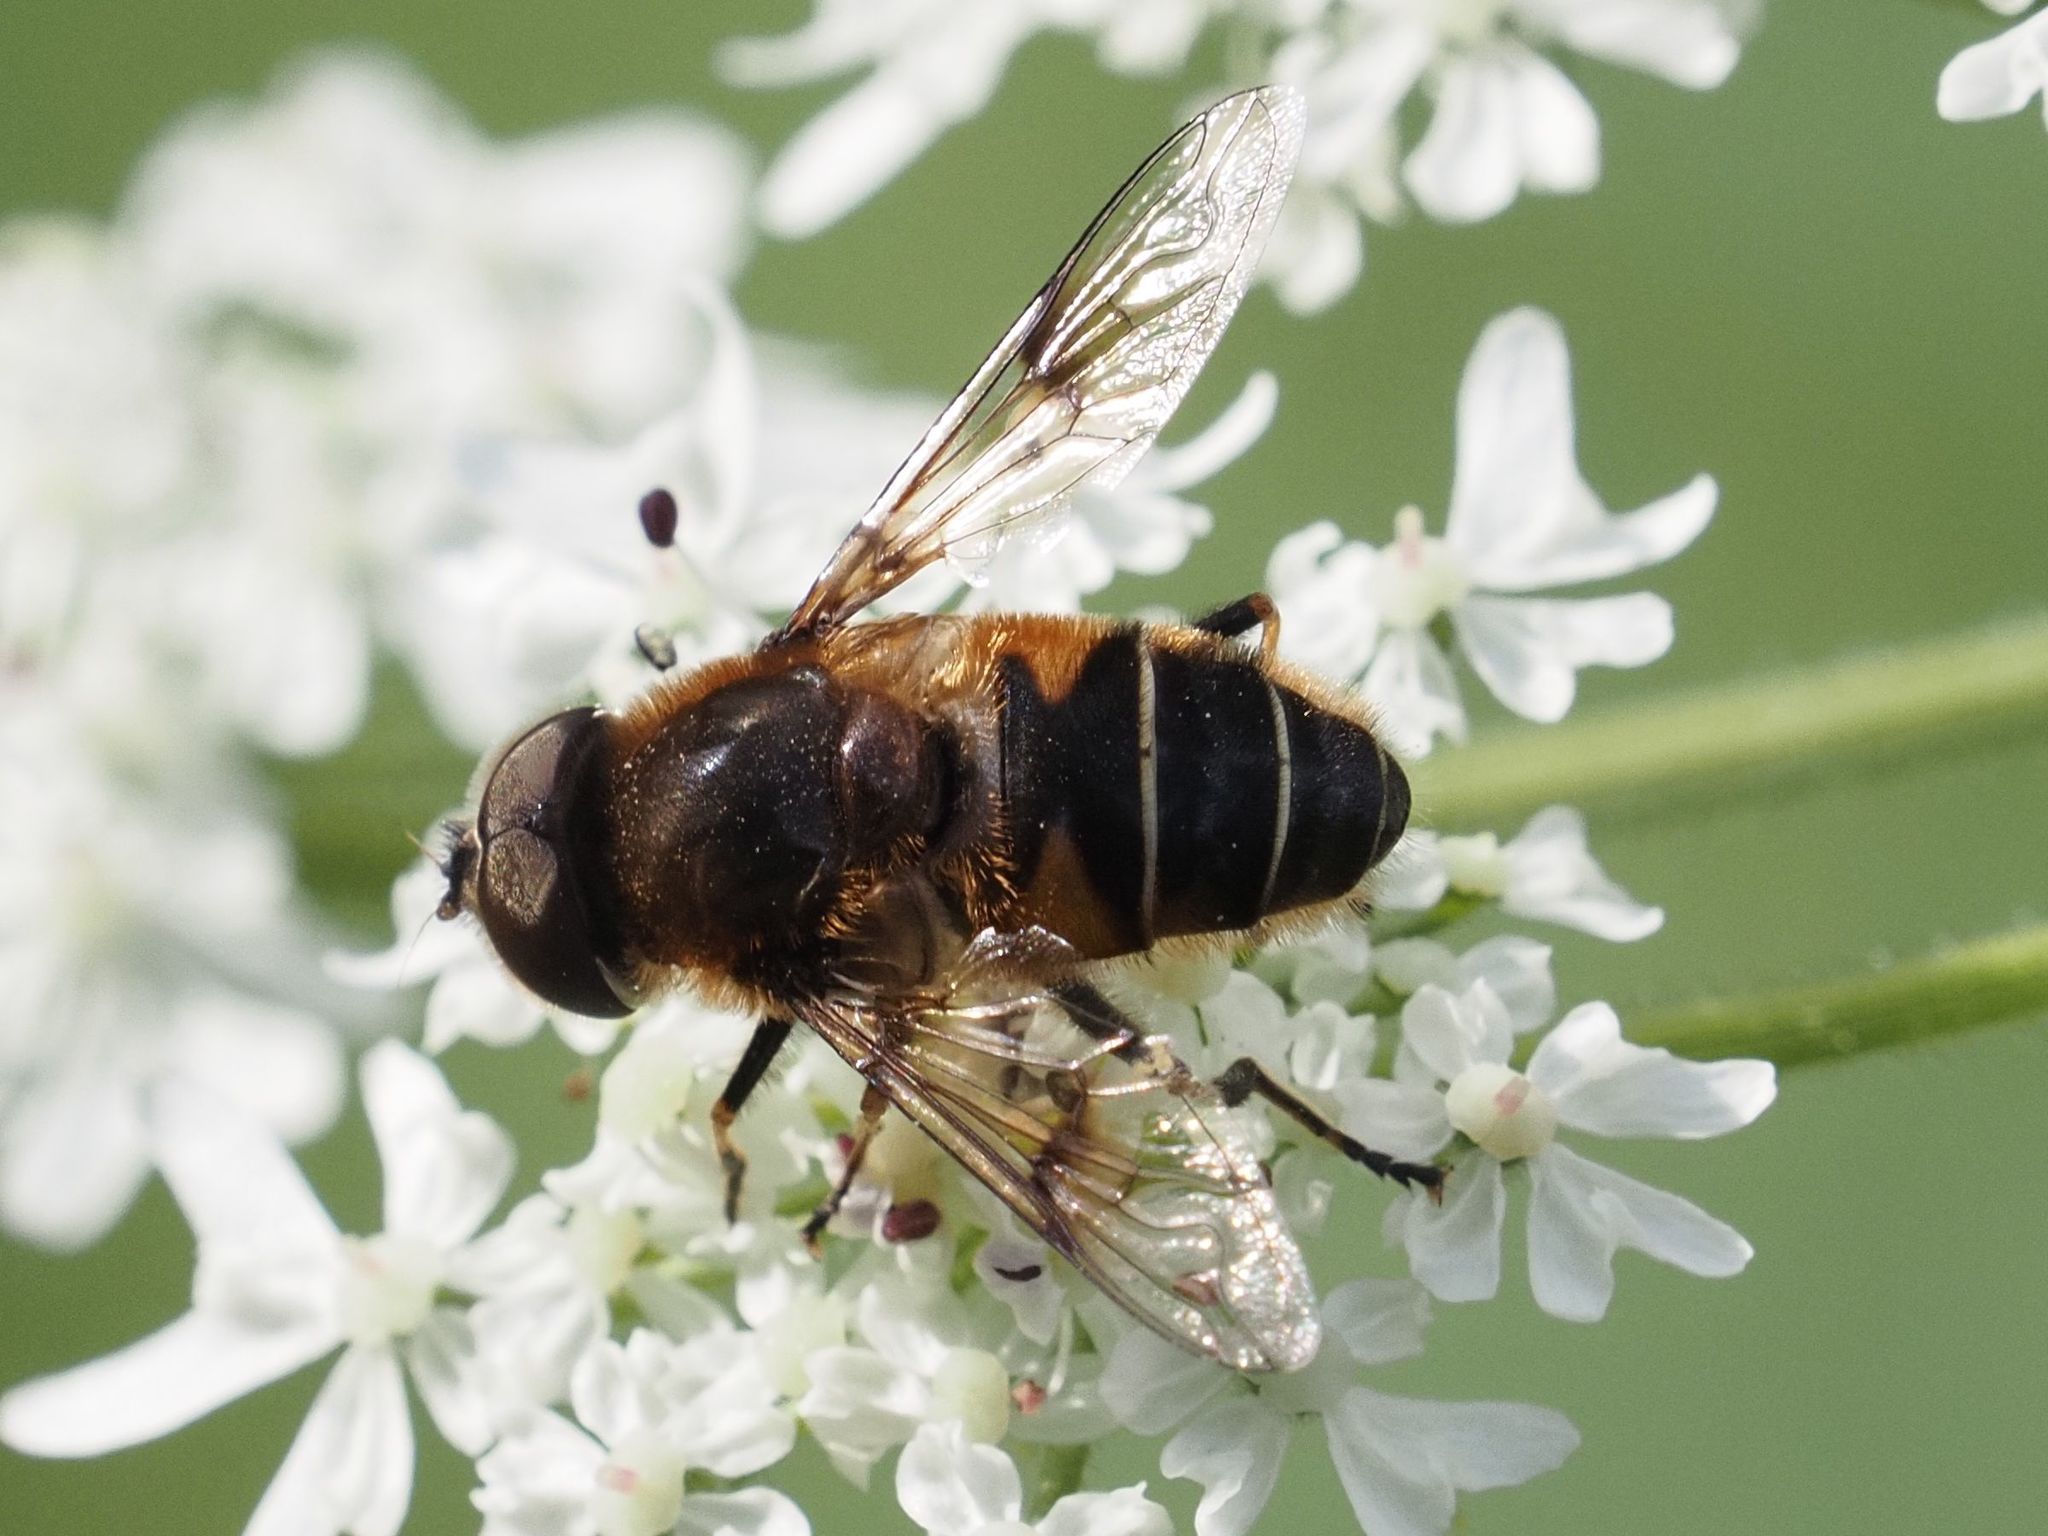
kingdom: Animalia
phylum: Arthropoda
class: Insecta
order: Diptera
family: Syrphidae
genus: Eristalis
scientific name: Eristalis rupium
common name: Hover fly
